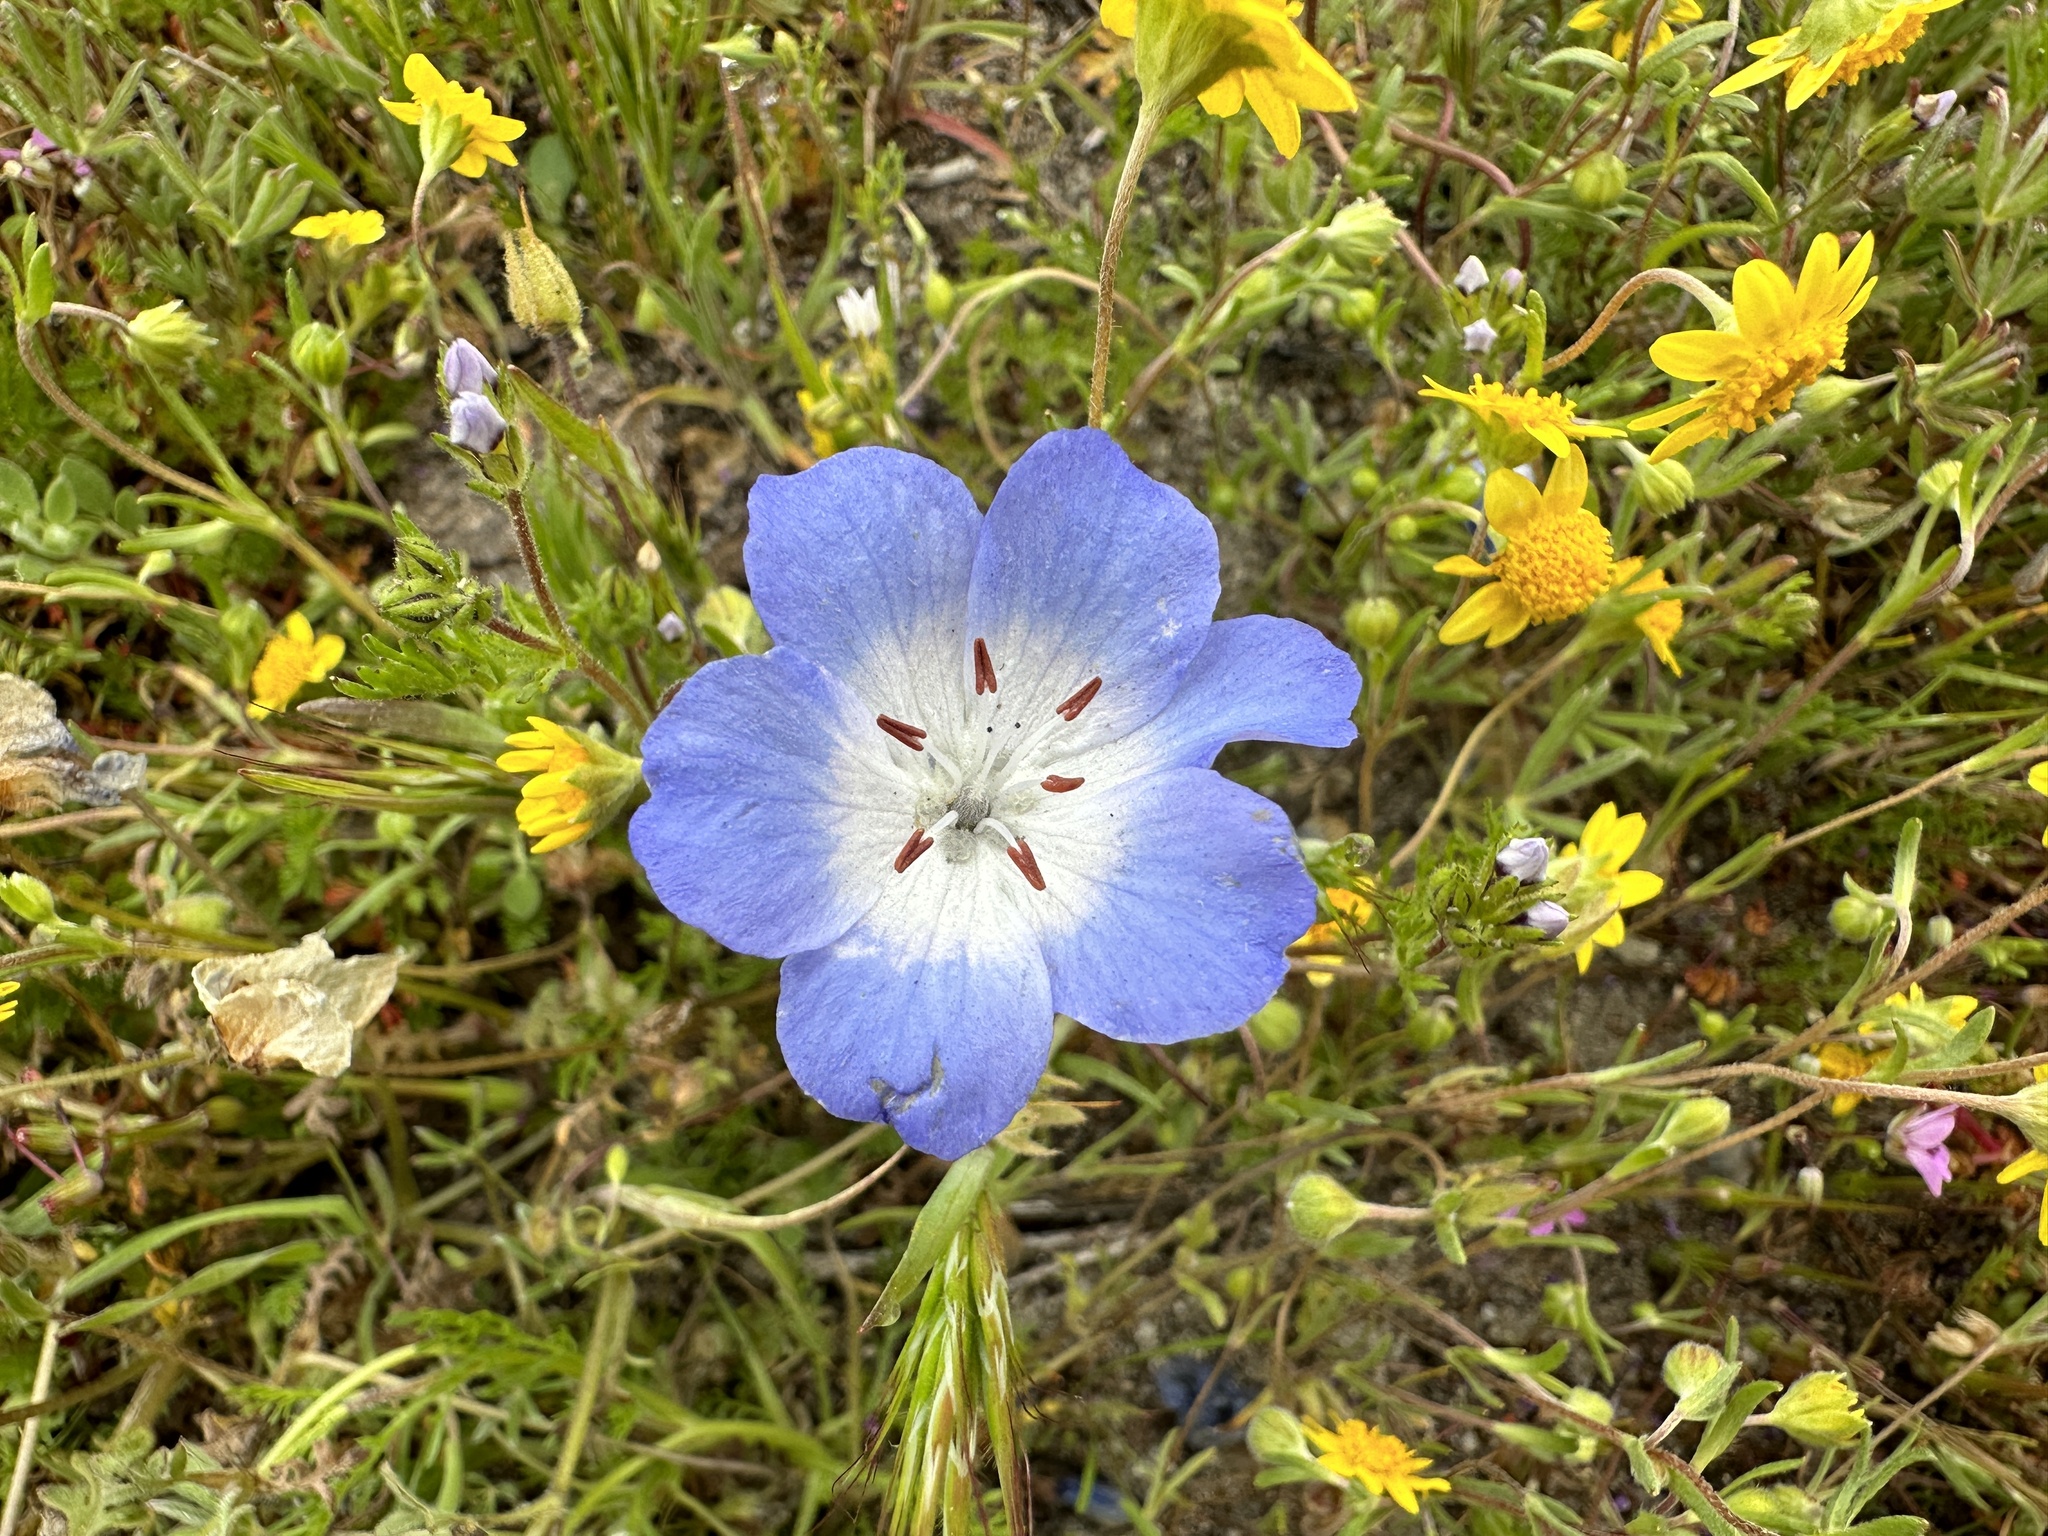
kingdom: Plantae
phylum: Tracheophyta
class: Magnoliopsida
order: Boraginales
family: Hydrophyllaceae
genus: Nemophila
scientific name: Nemophila menziesii
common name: Baby's-blue-eyes
